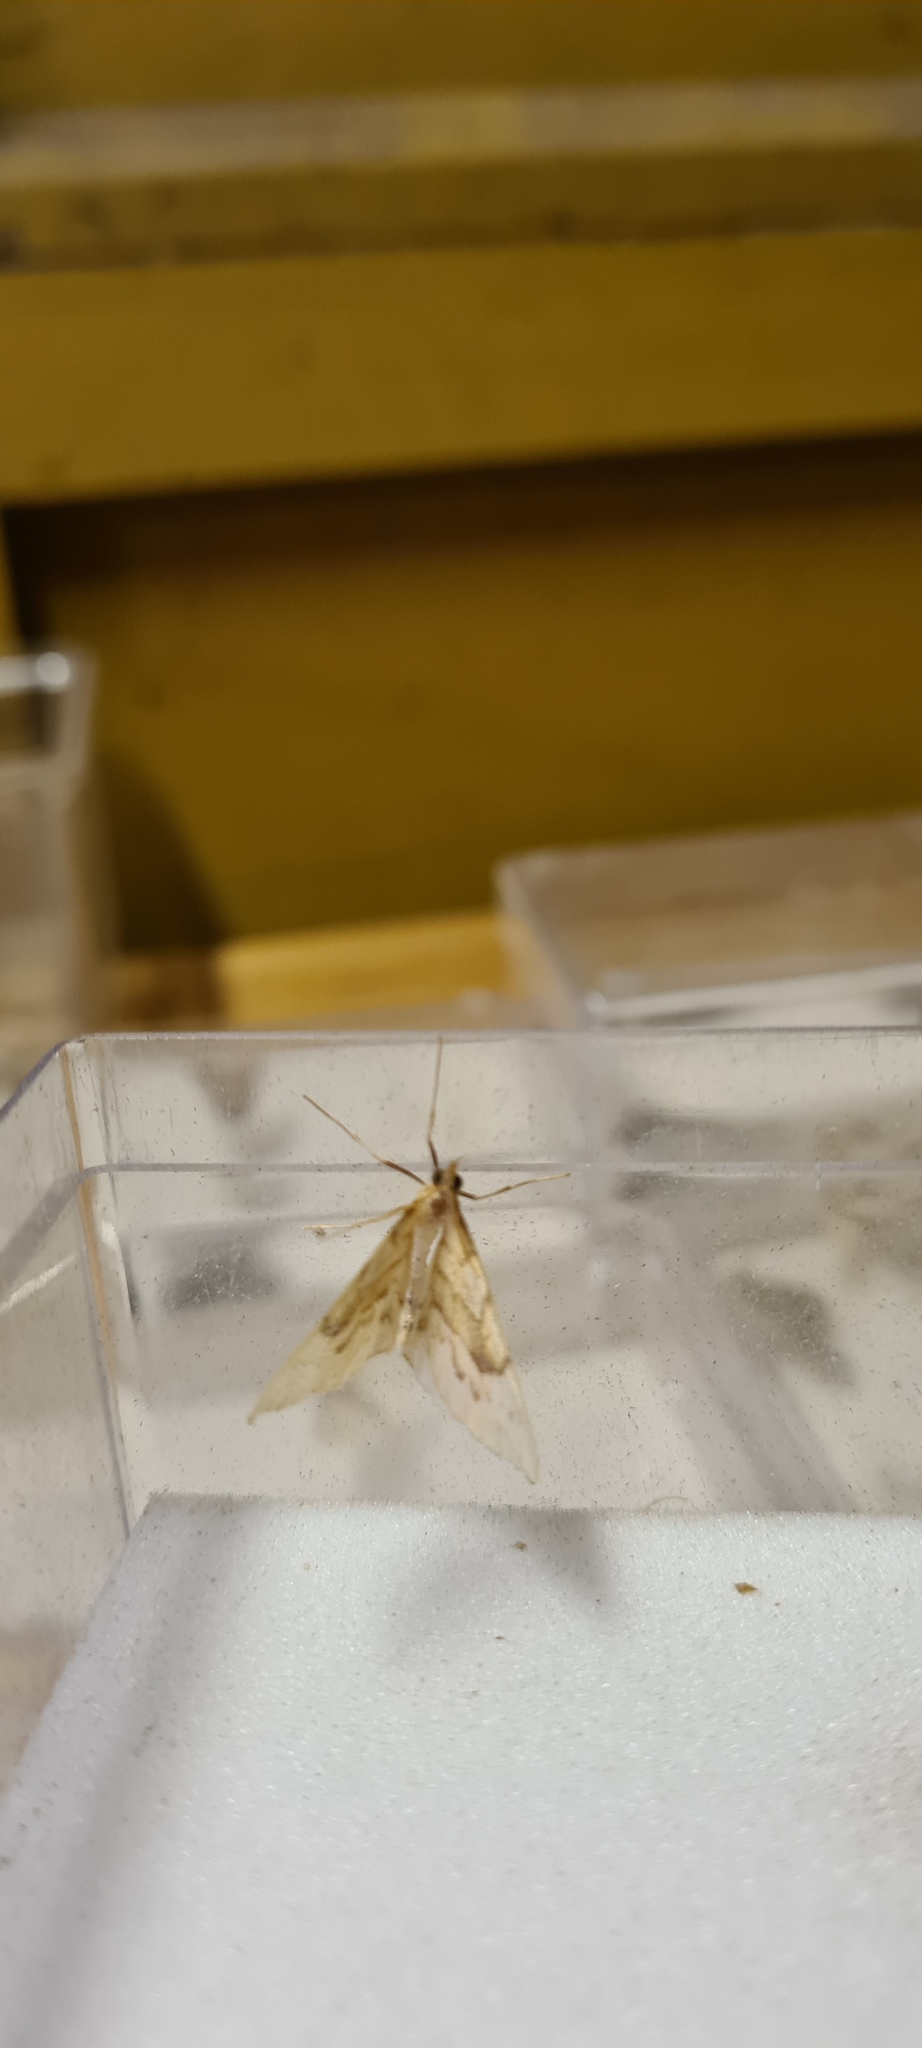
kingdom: Animalia
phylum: Arthropoda
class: Insecta
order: Lepidoptera
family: Geometridae
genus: Eulithis
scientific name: Eulithis pyraliata
